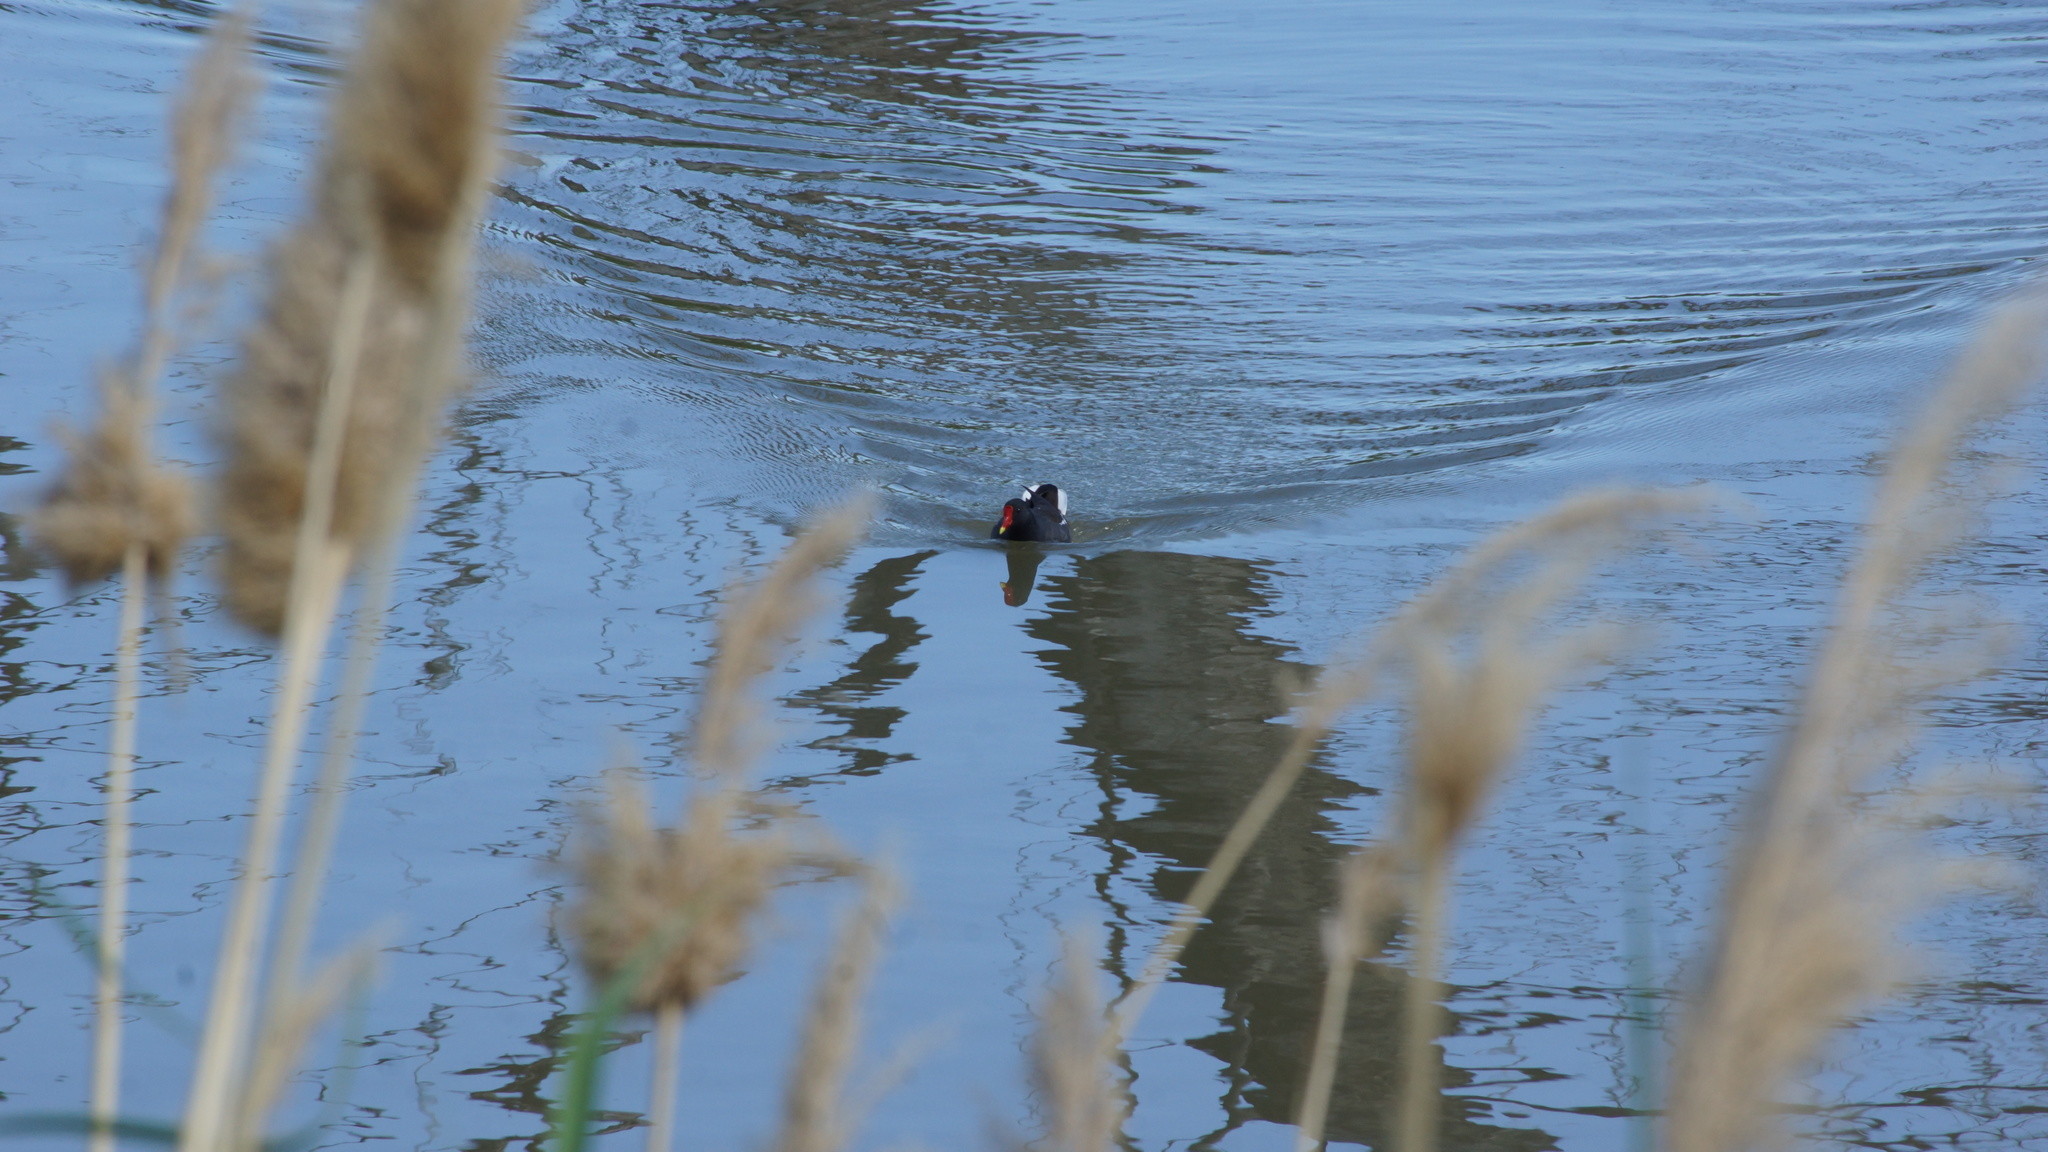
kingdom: Animalia
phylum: Chordata
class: Aves
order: Gruiformes
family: Rallidae
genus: Gallinula
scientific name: Gallinula chloropus
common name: Common moorhen
